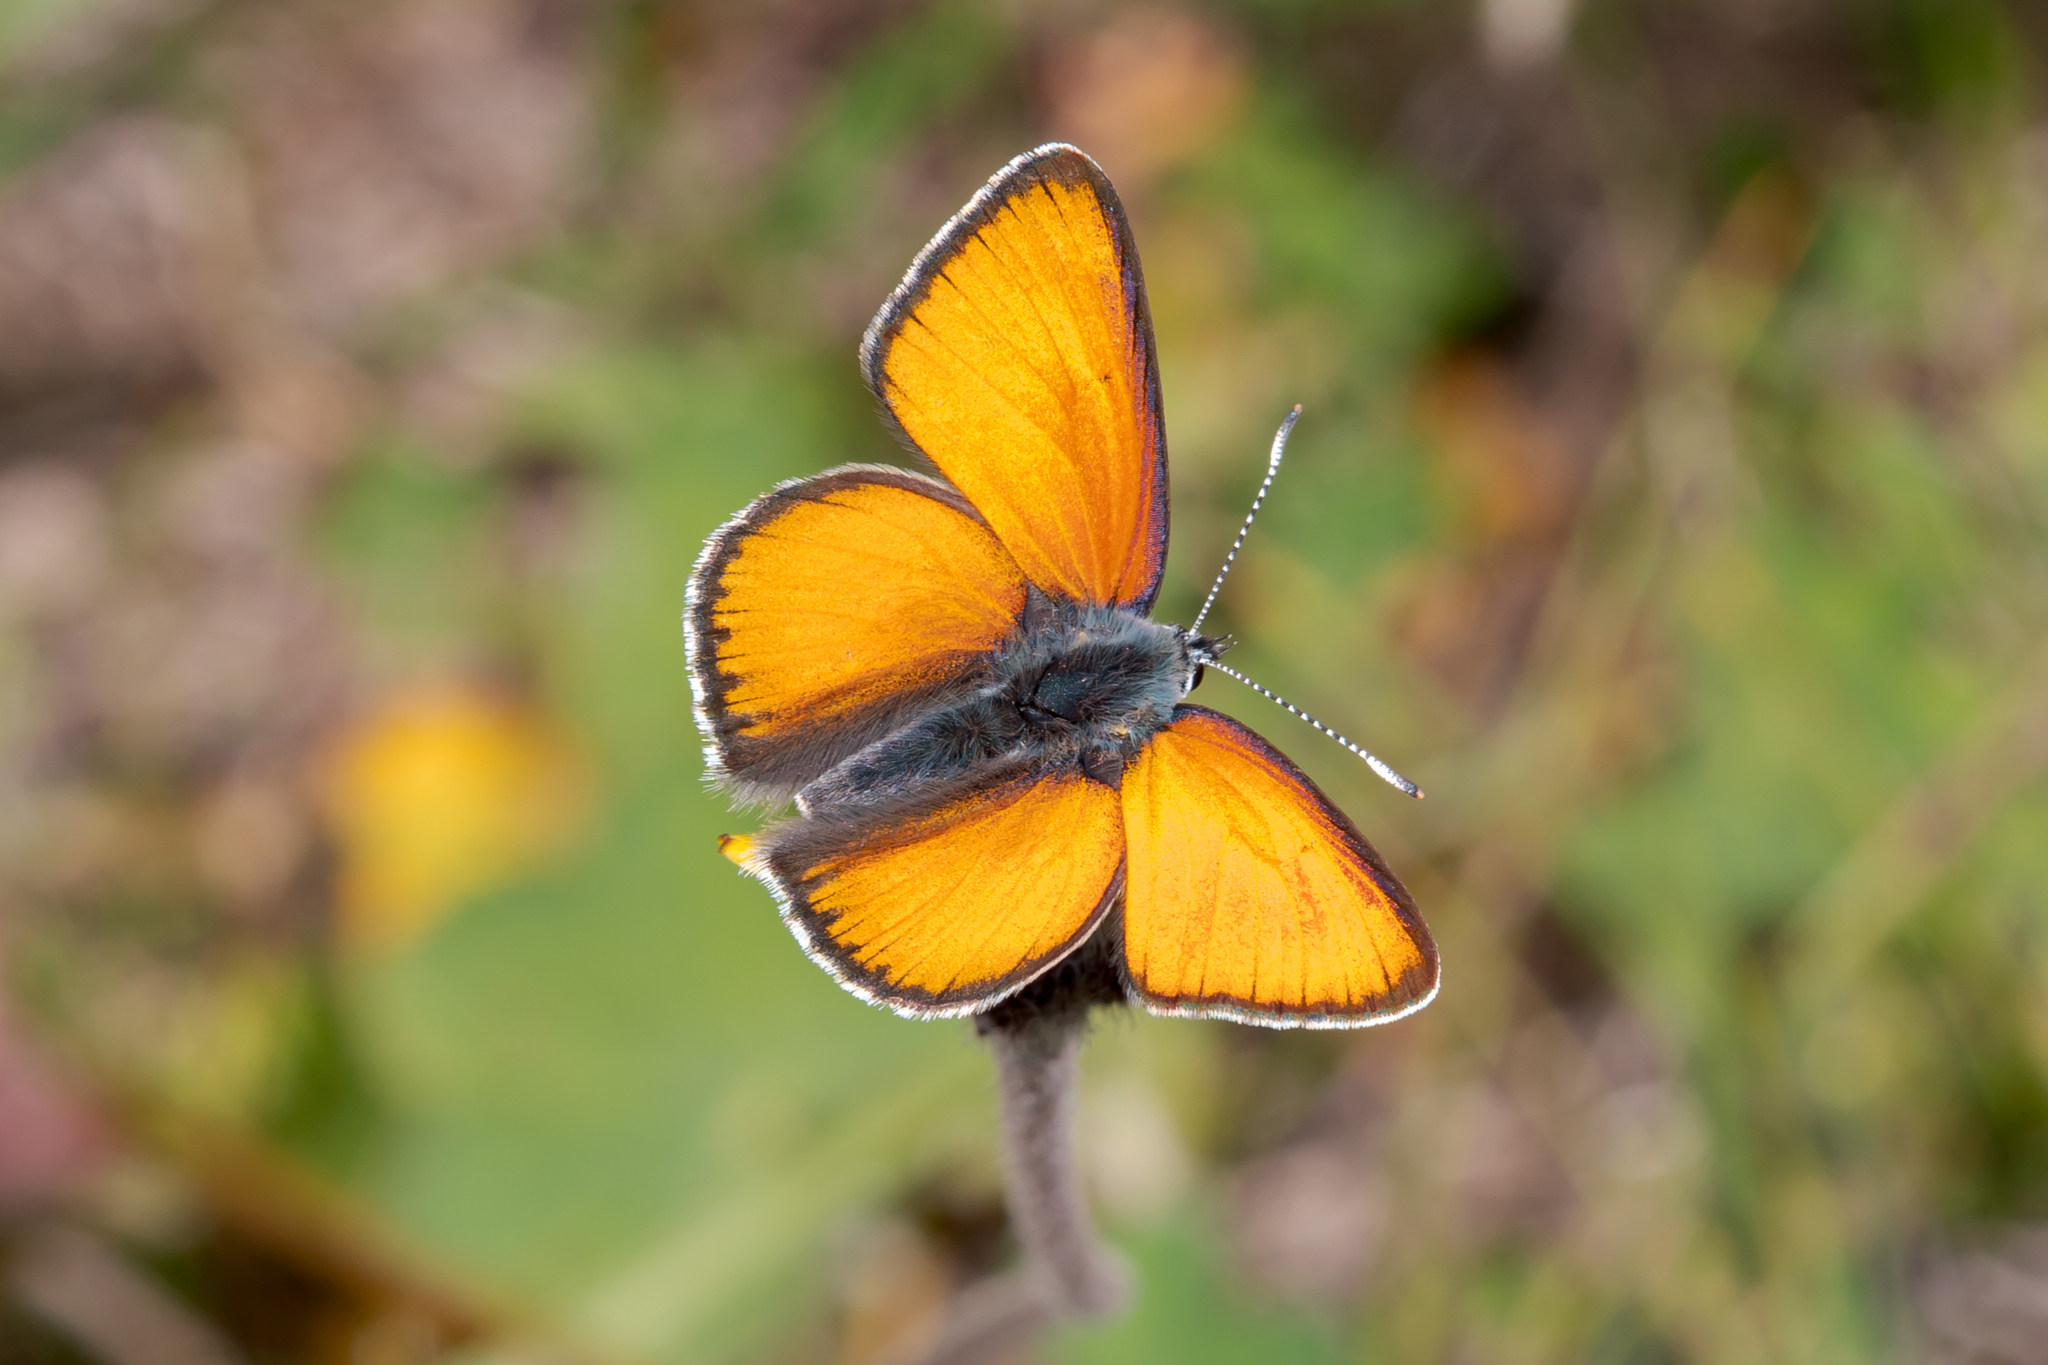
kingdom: Animalia
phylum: Arthropoda
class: Insecta
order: Lepidoptera
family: Lycaenidae
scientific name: Lycaenidae
